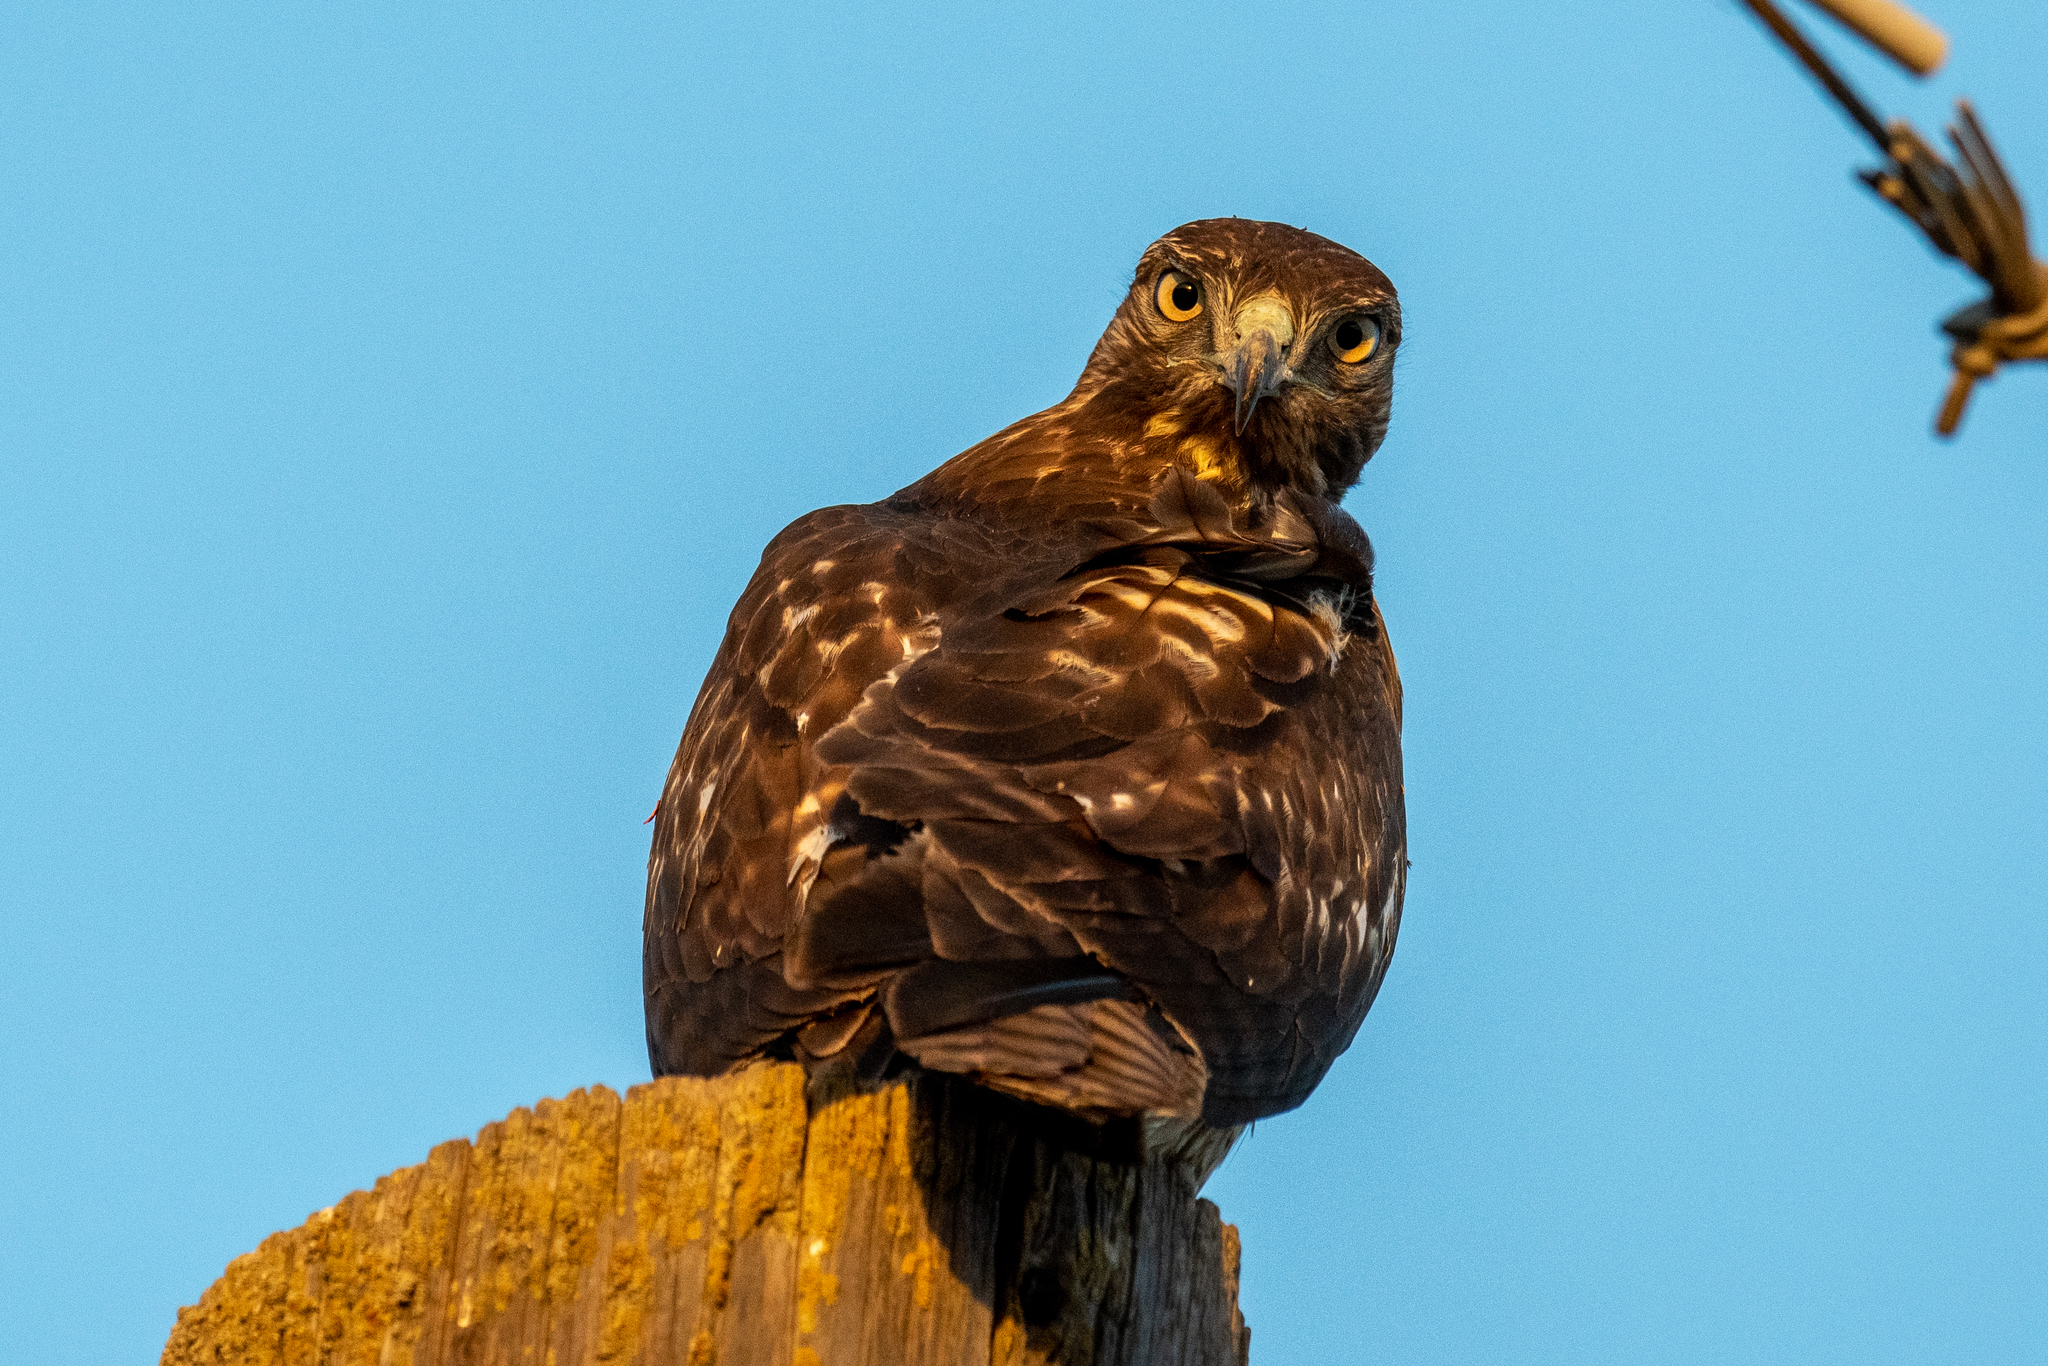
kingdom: Animalia
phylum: Chordata
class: Aves
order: Accipitriformes
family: Accipitridae
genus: Buteo
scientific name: Buteo jamaicensis
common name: Red-tailed hawk
